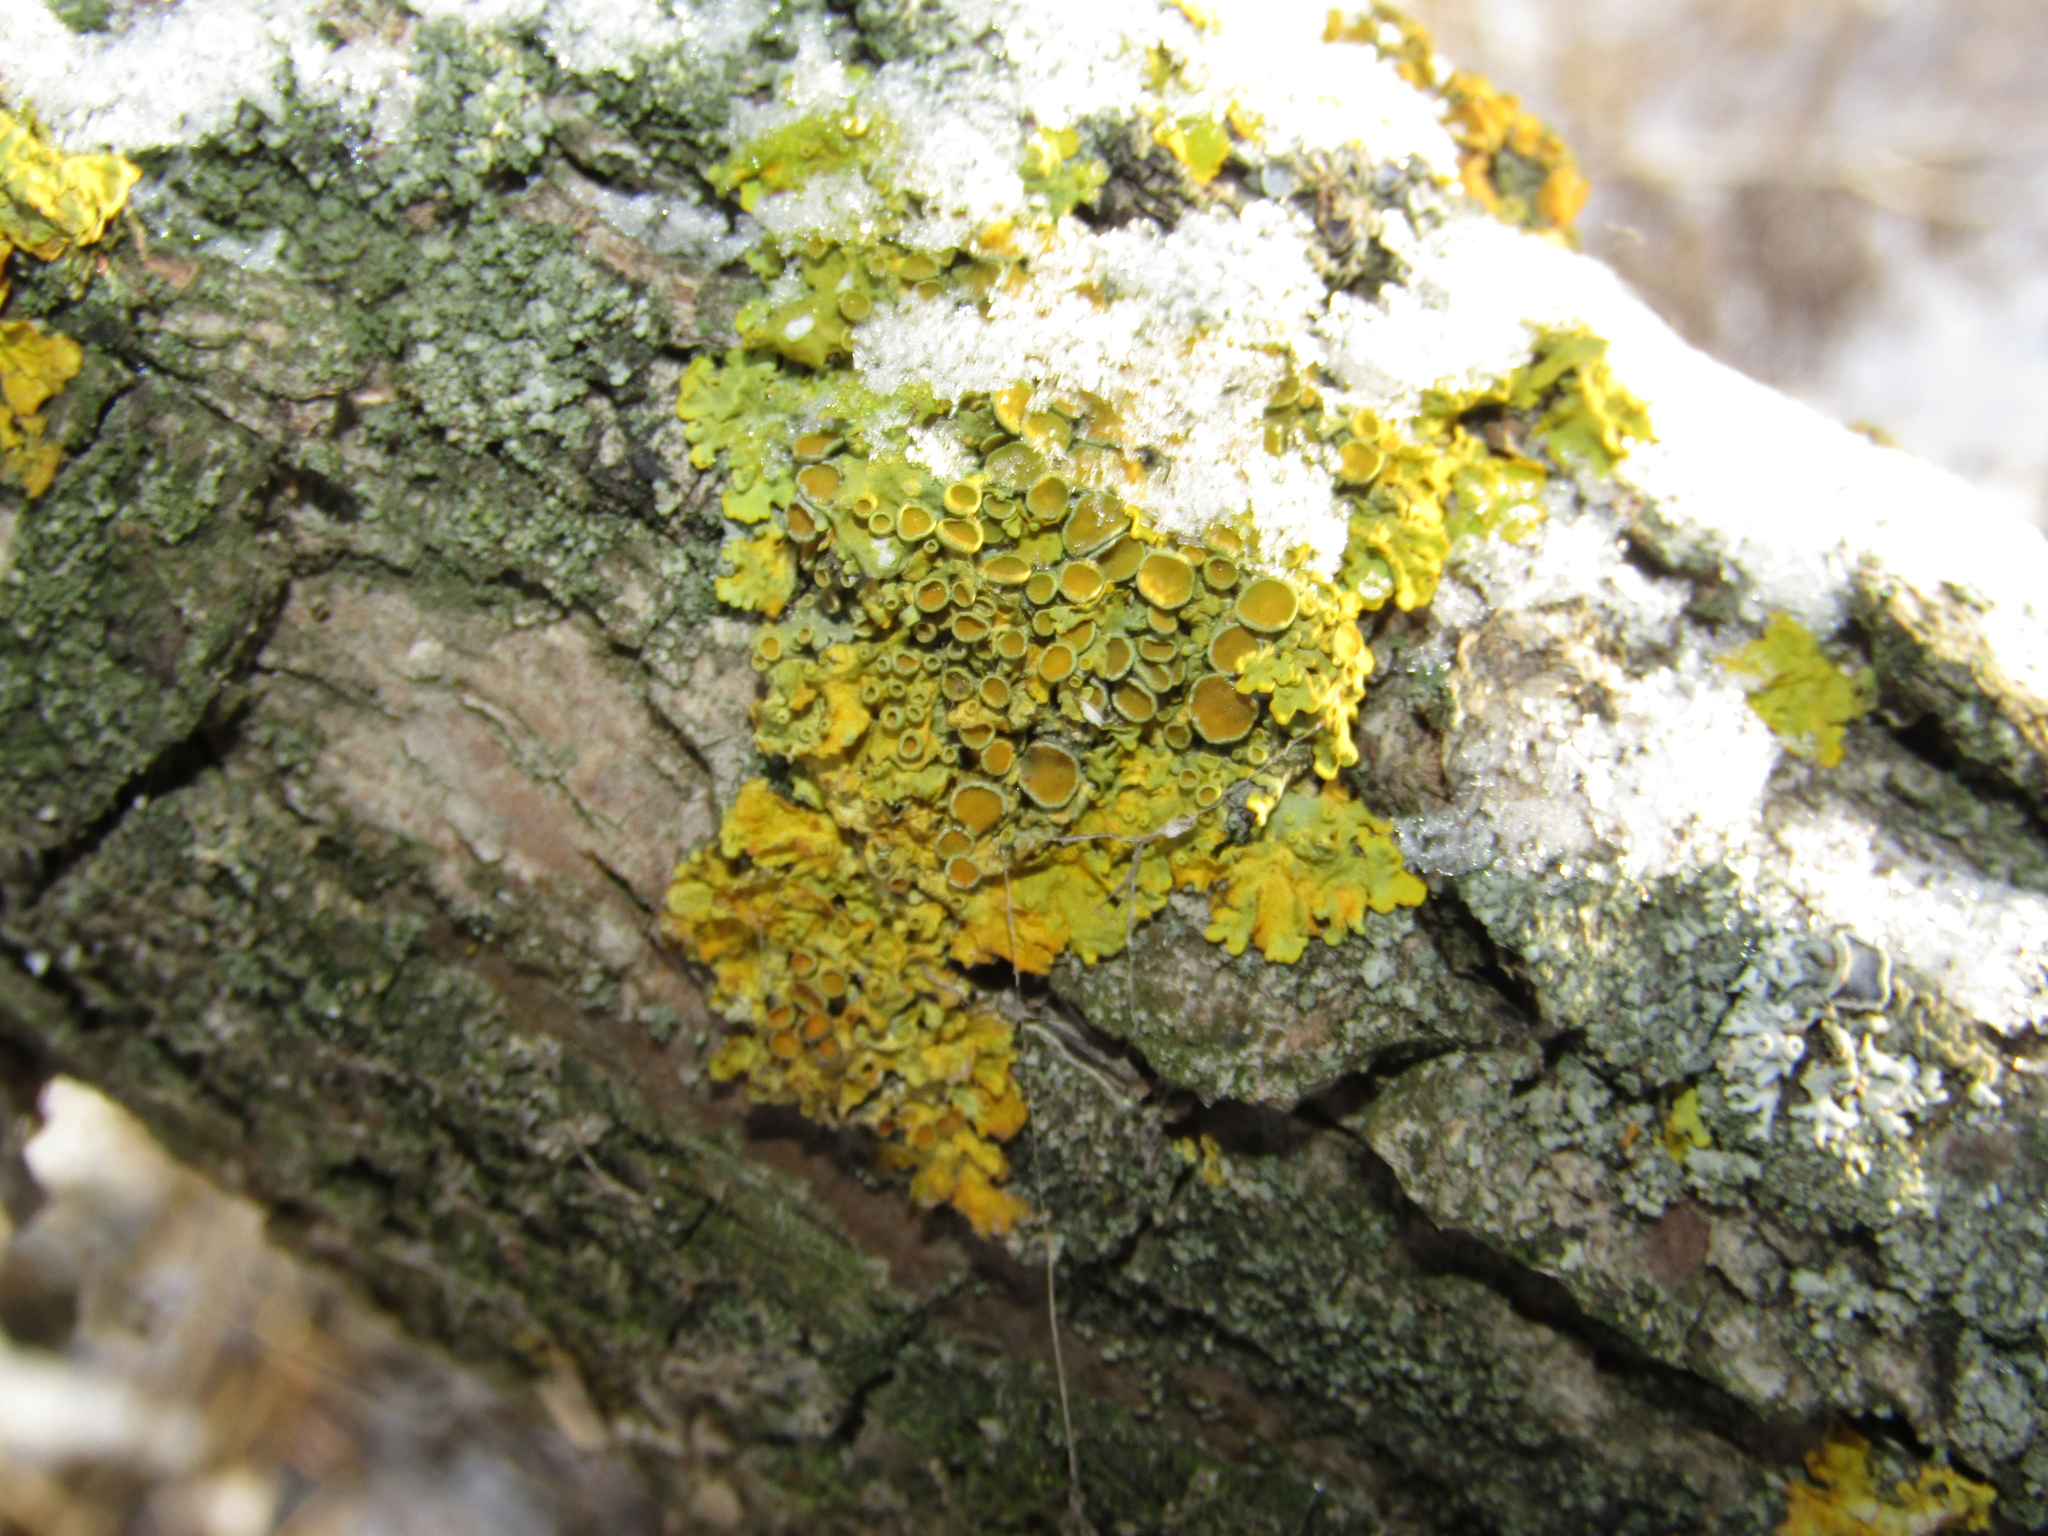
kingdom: Fungi
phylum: Ascomycota
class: Lecanoromycetes
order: Teloschistales
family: Teloschistaceae
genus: Xanthoria
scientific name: Xanthoria parietina
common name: Common orange lichen
